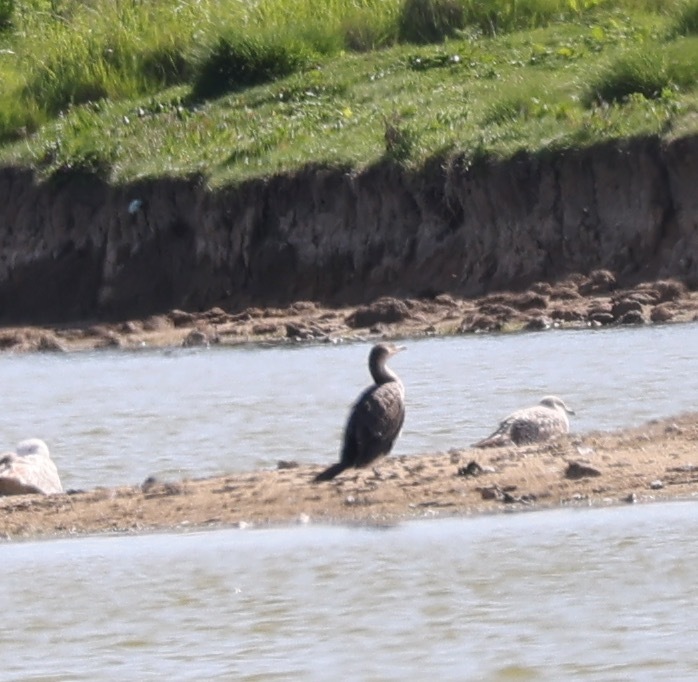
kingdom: Animalia
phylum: Chordata
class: Aves
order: Suliformes
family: Phalacrocoracidae
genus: Phalacrocorax
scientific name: Phalacrocorax carbo
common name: Great cormorant
